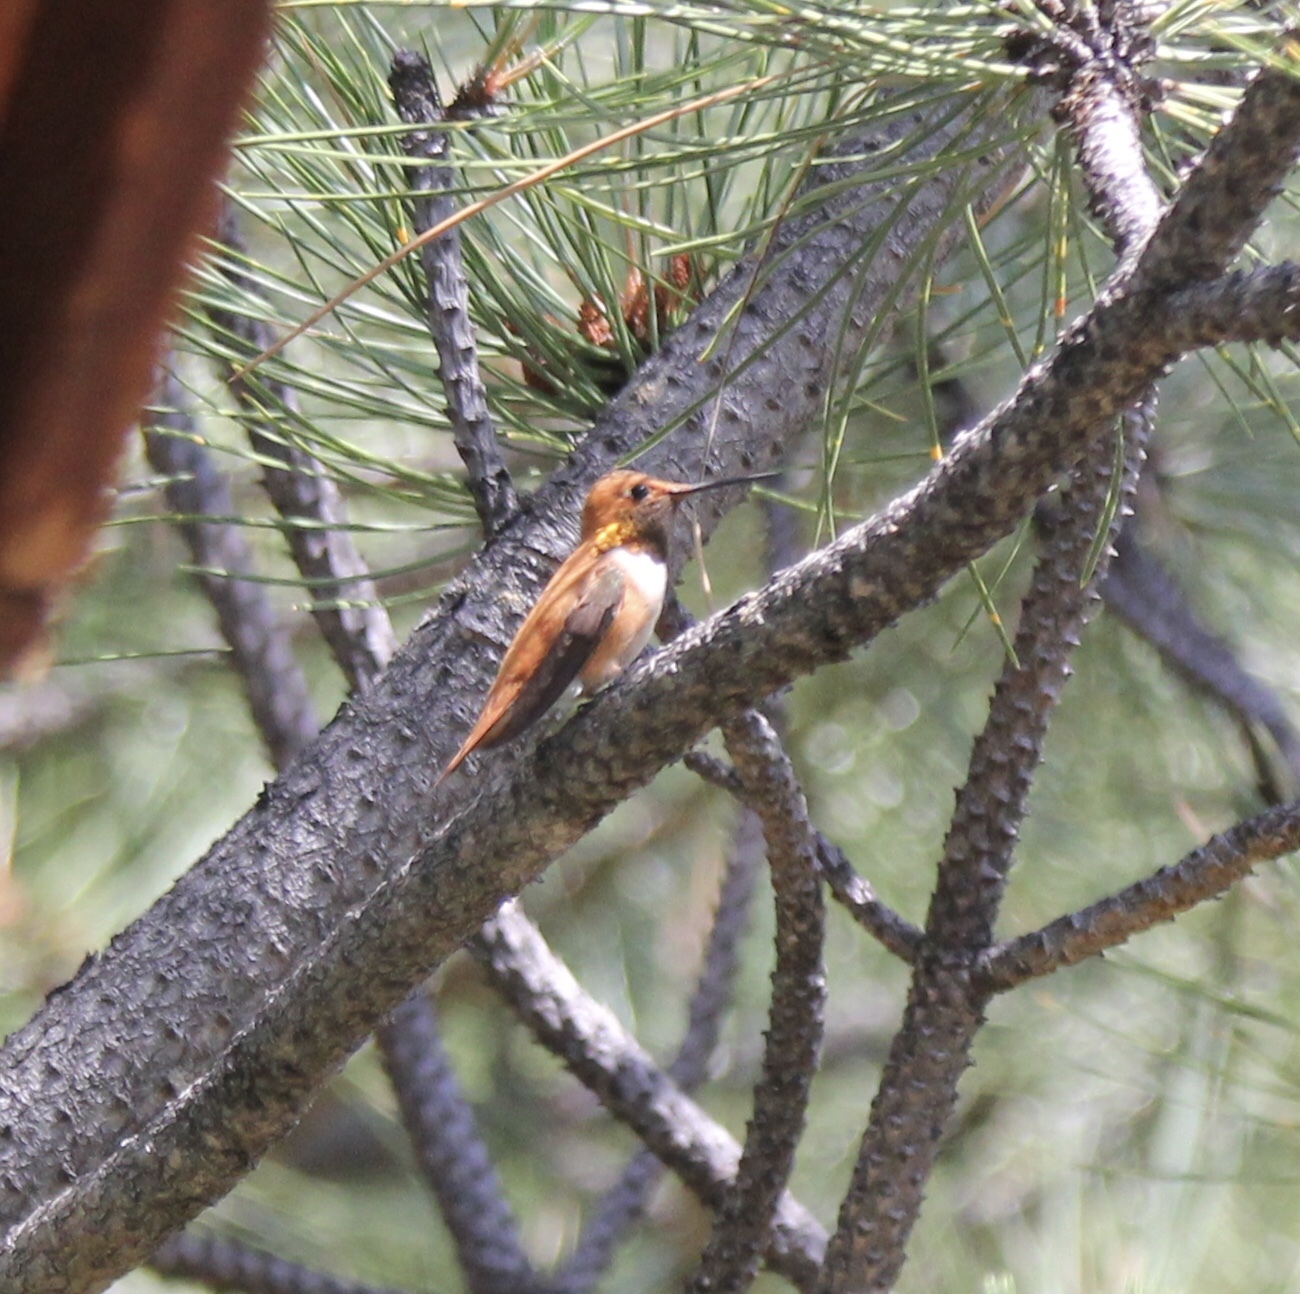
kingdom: Animalia
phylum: Chordata
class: Aves
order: Apodiformes
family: Trochilidae
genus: Selasphorus
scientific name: Selasphorus rufus
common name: Rufous hummingbird
